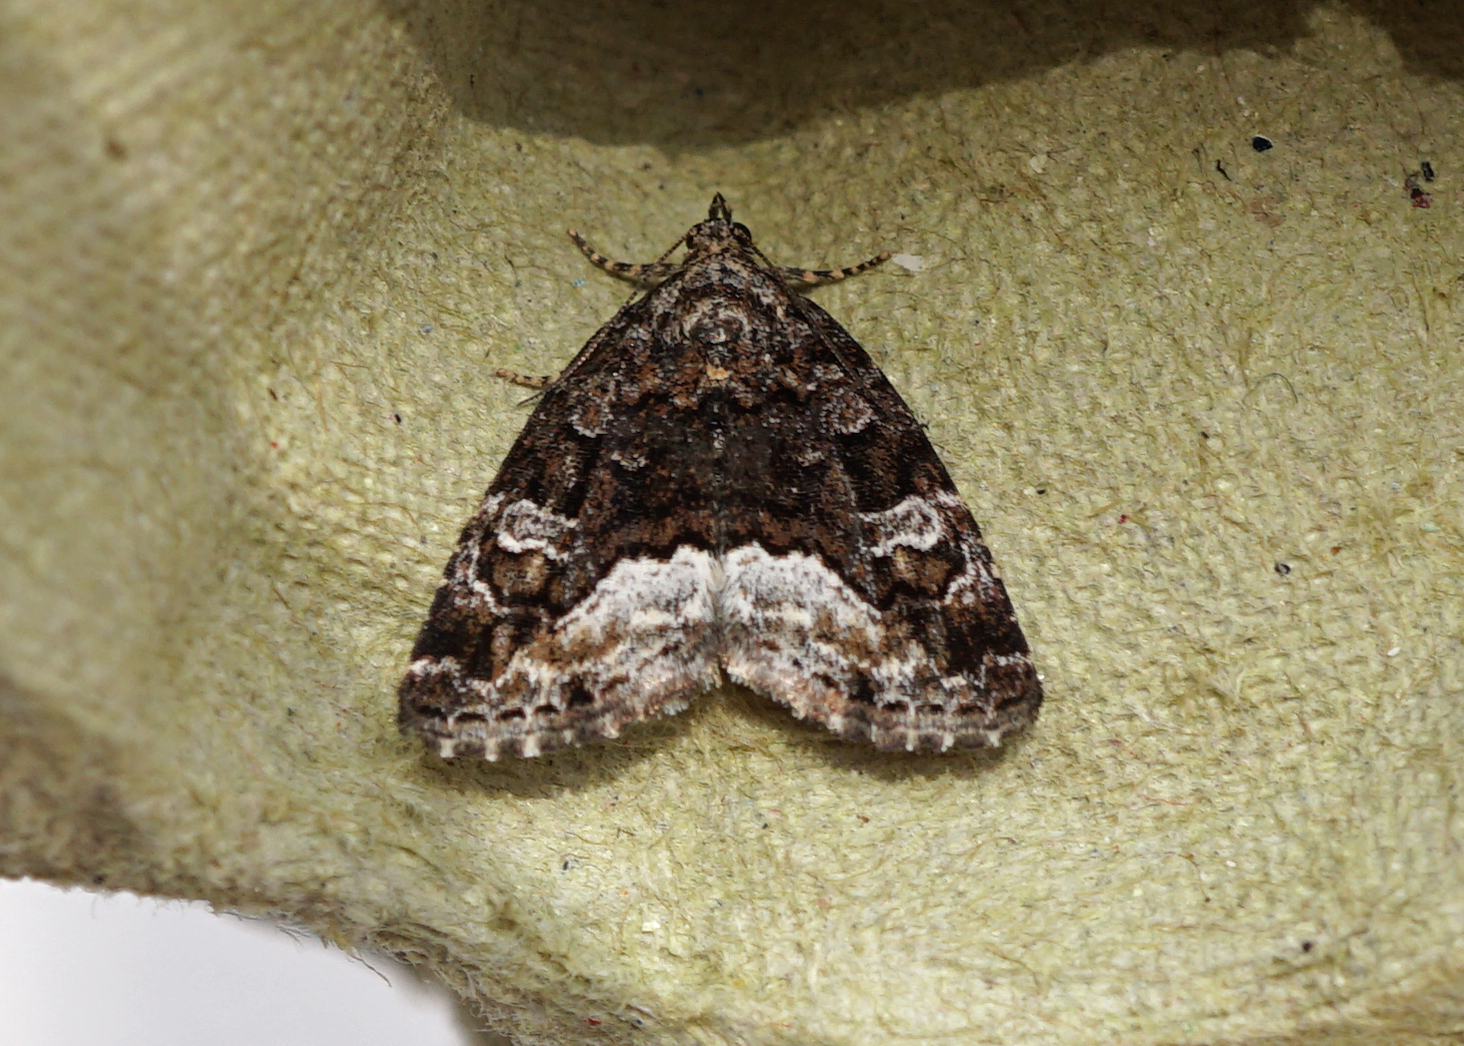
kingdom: Animalia
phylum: Arthropoda
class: Insecta
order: Lepidoptera
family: Noctuidae
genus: Deltote
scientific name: Deltote pygarga
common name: Marbled white spot
